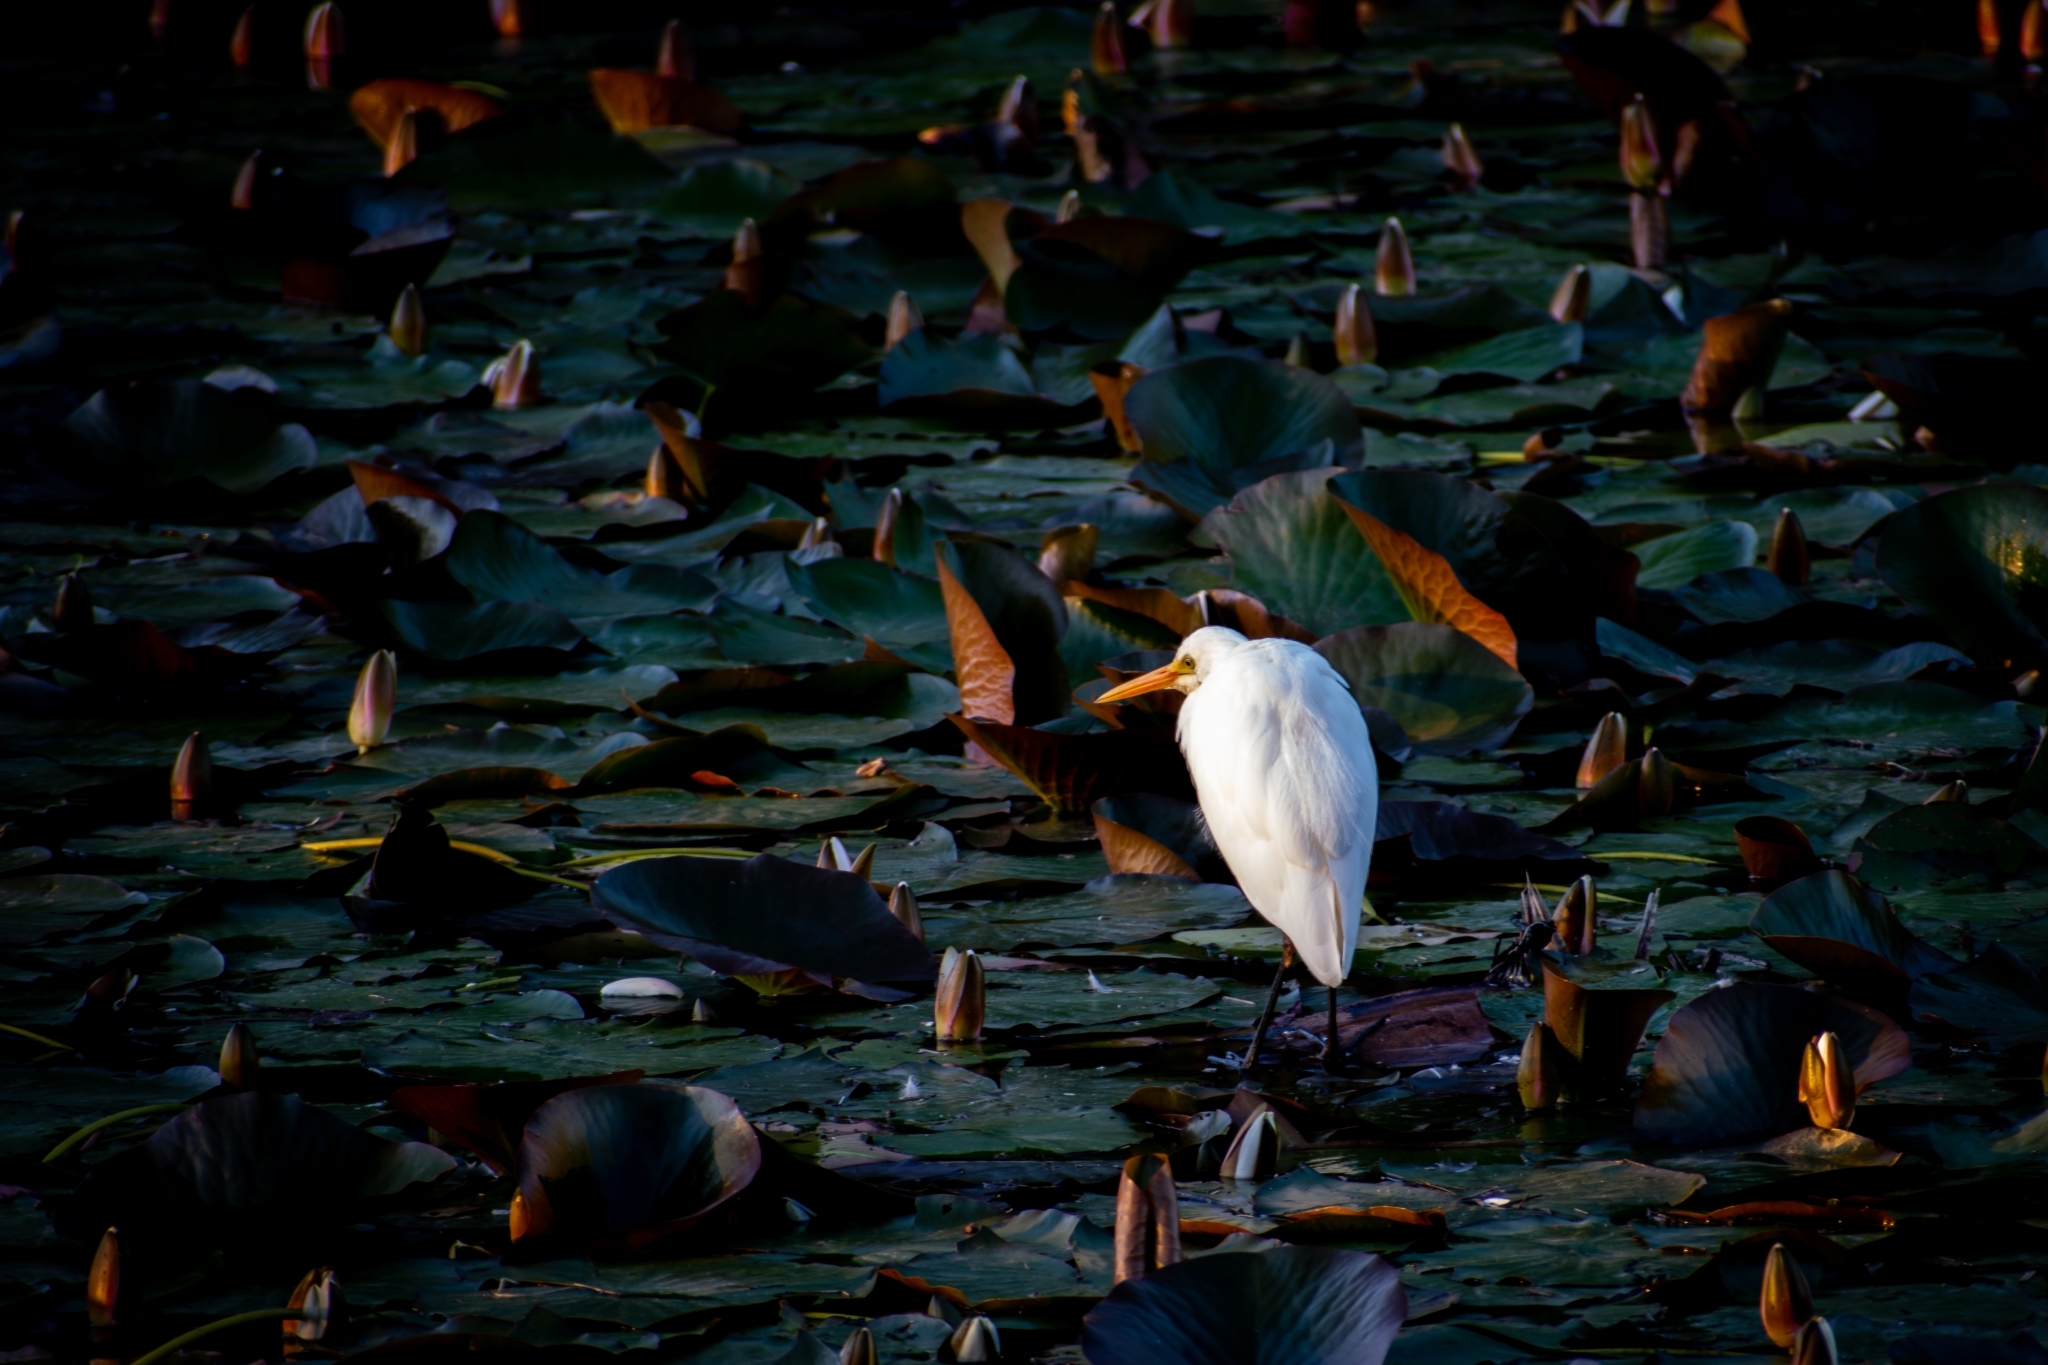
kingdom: Animalia
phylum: Chordata
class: Aves
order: Pelecaniformes
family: Ardeidae
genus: Egretta
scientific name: Egretta intermedia
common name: Intermediate egret
